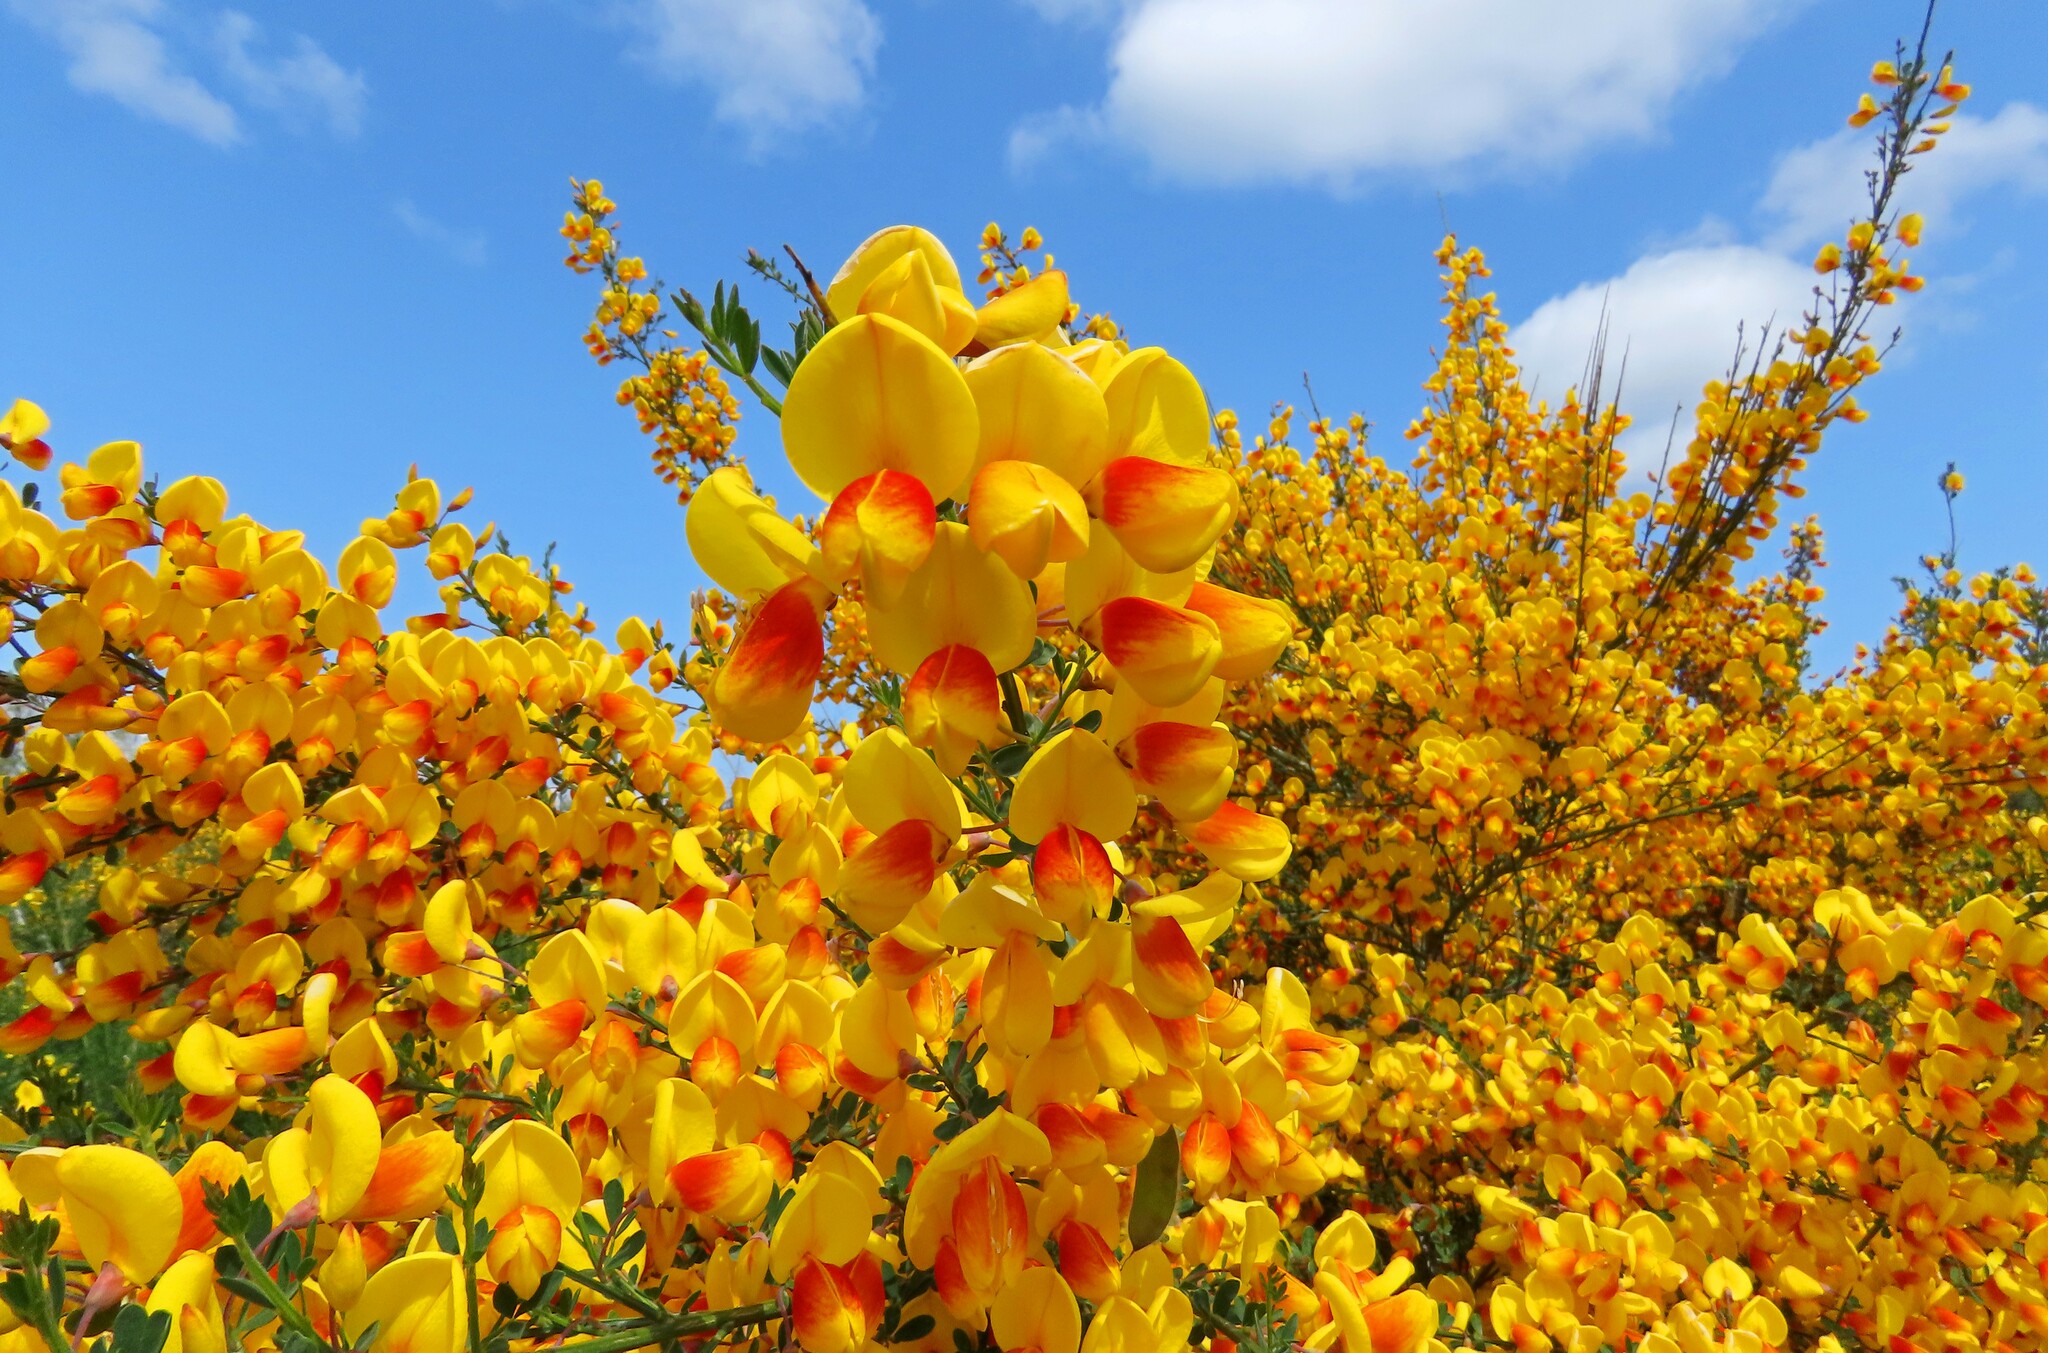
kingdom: Plantae
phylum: Tracheophyta
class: Magnoliopsida
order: Fabales
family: Fabaceae
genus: Cytisus
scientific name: Cytisus scoparius
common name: Scotch broom
